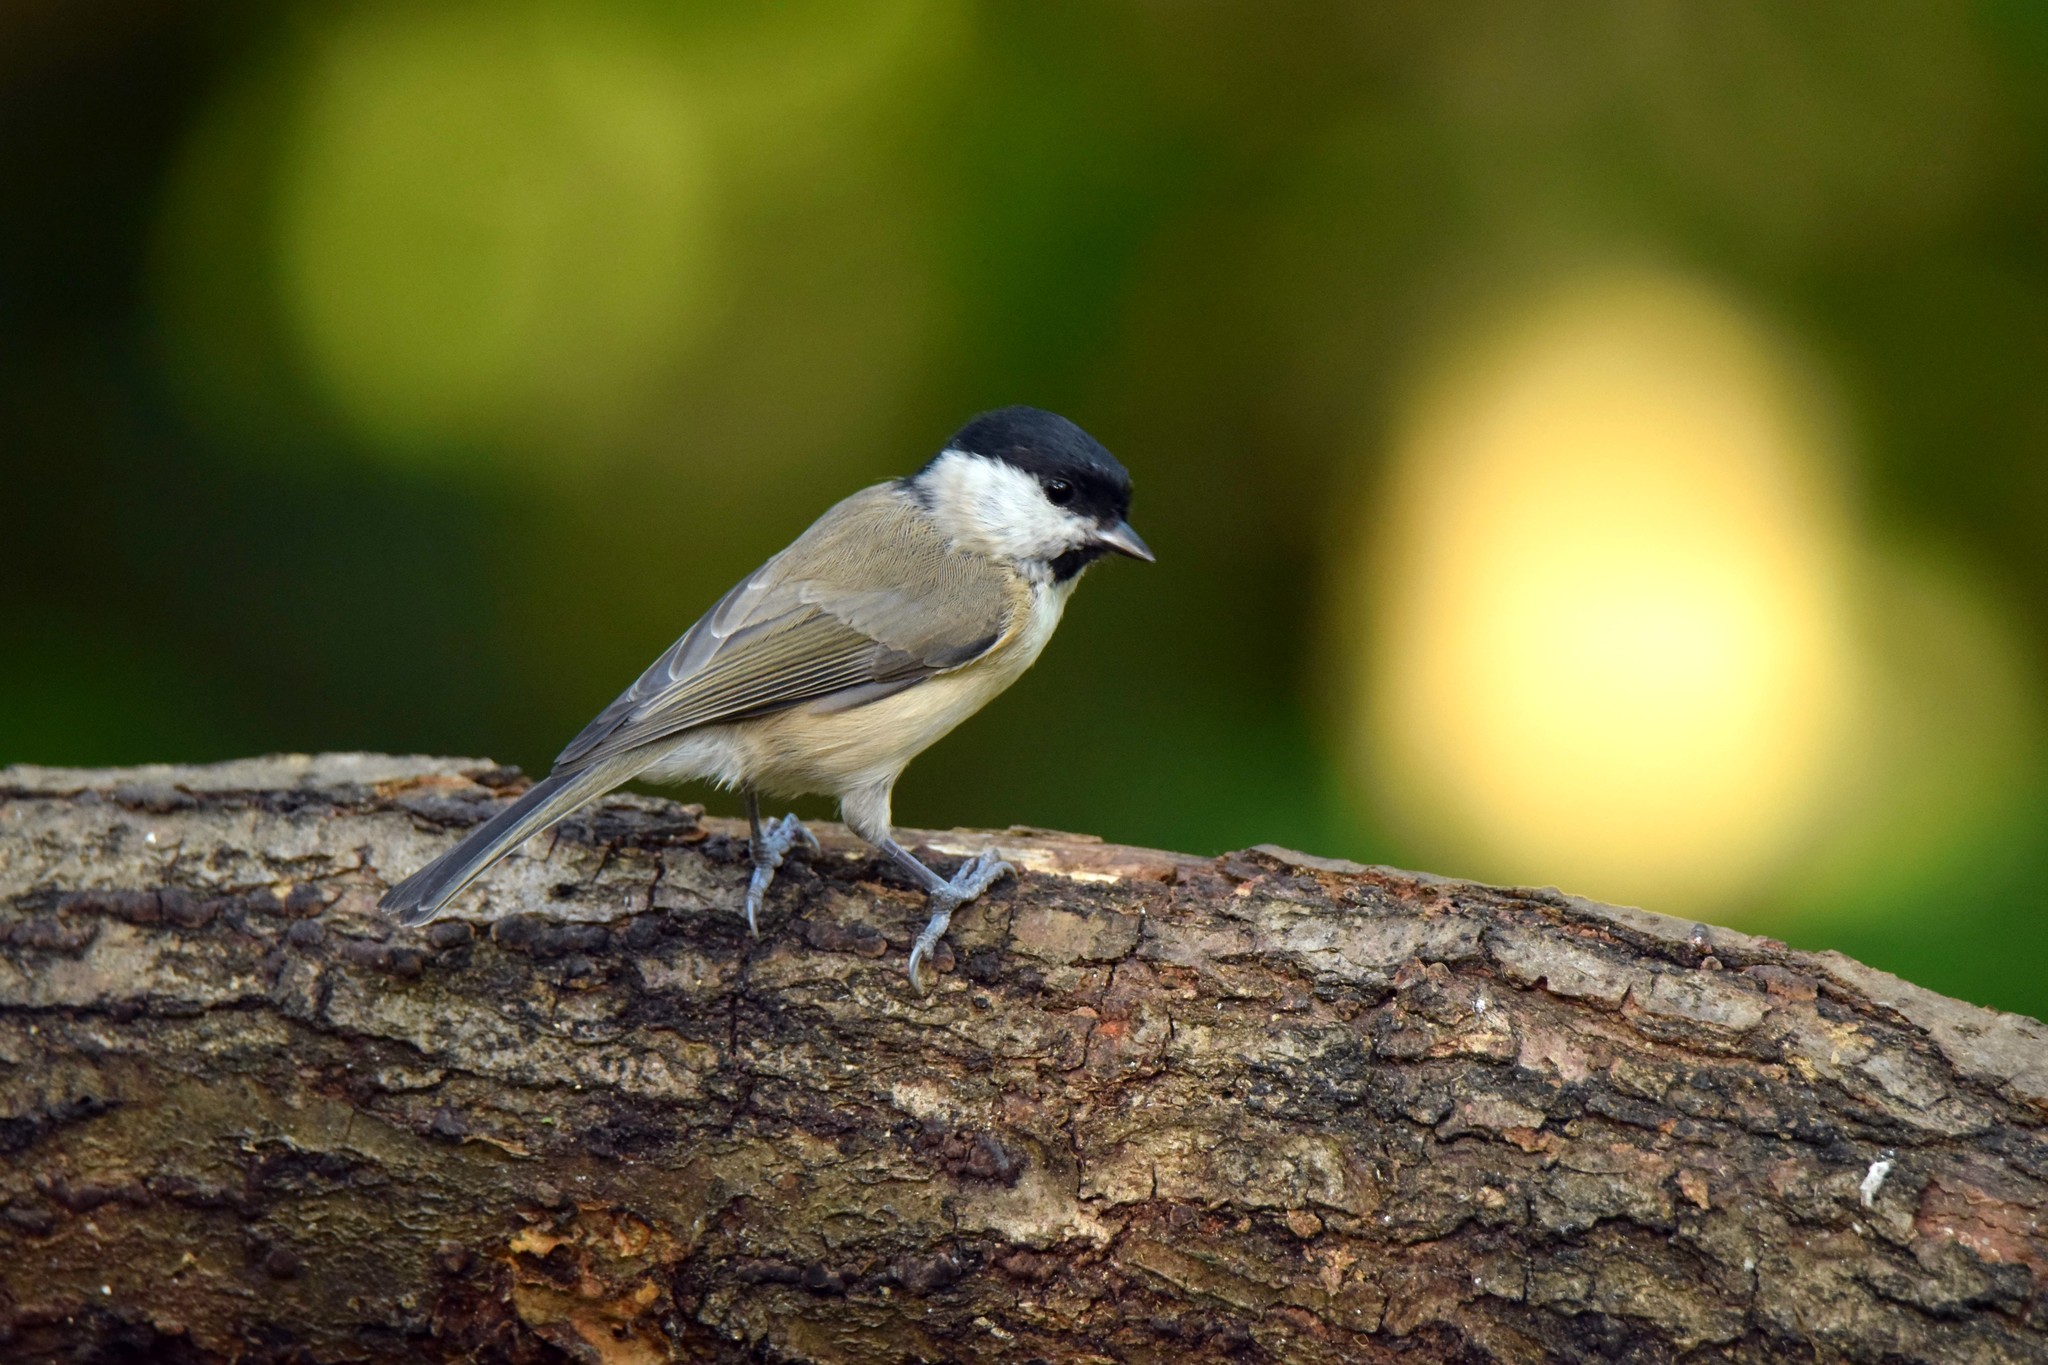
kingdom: Animalia
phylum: Chordata
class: Aves
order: Passeriformes
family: Paridae
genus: Poecile
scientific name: Poecile palustris
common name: Marsh tit
